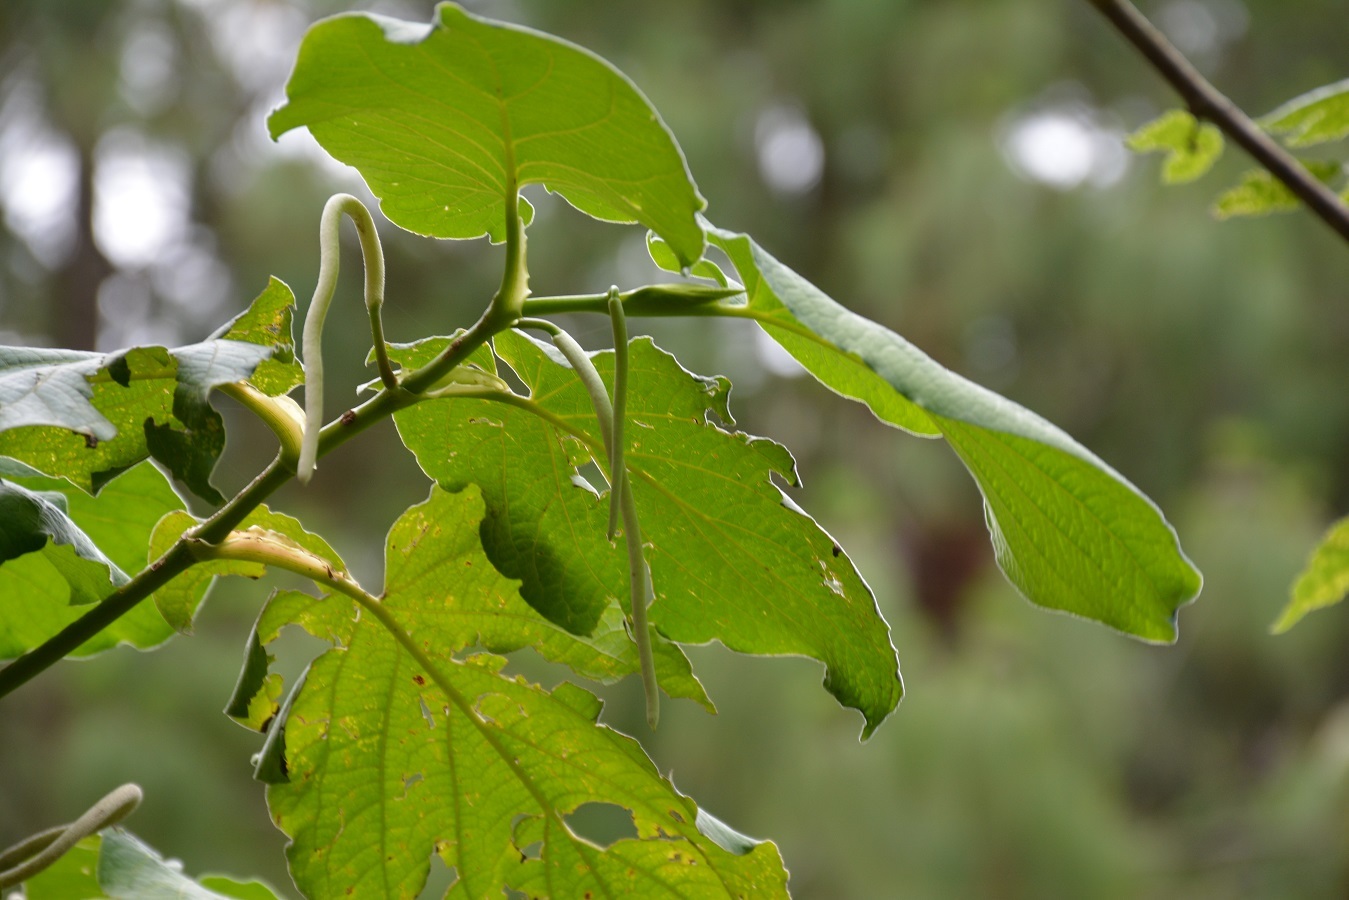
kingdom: Plantae
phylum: Tracheophyta
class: Magnoliopsida
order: Piperales
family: Piperaceae
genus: Piper
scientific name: Piper auritum
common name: Vera cruz pepper
